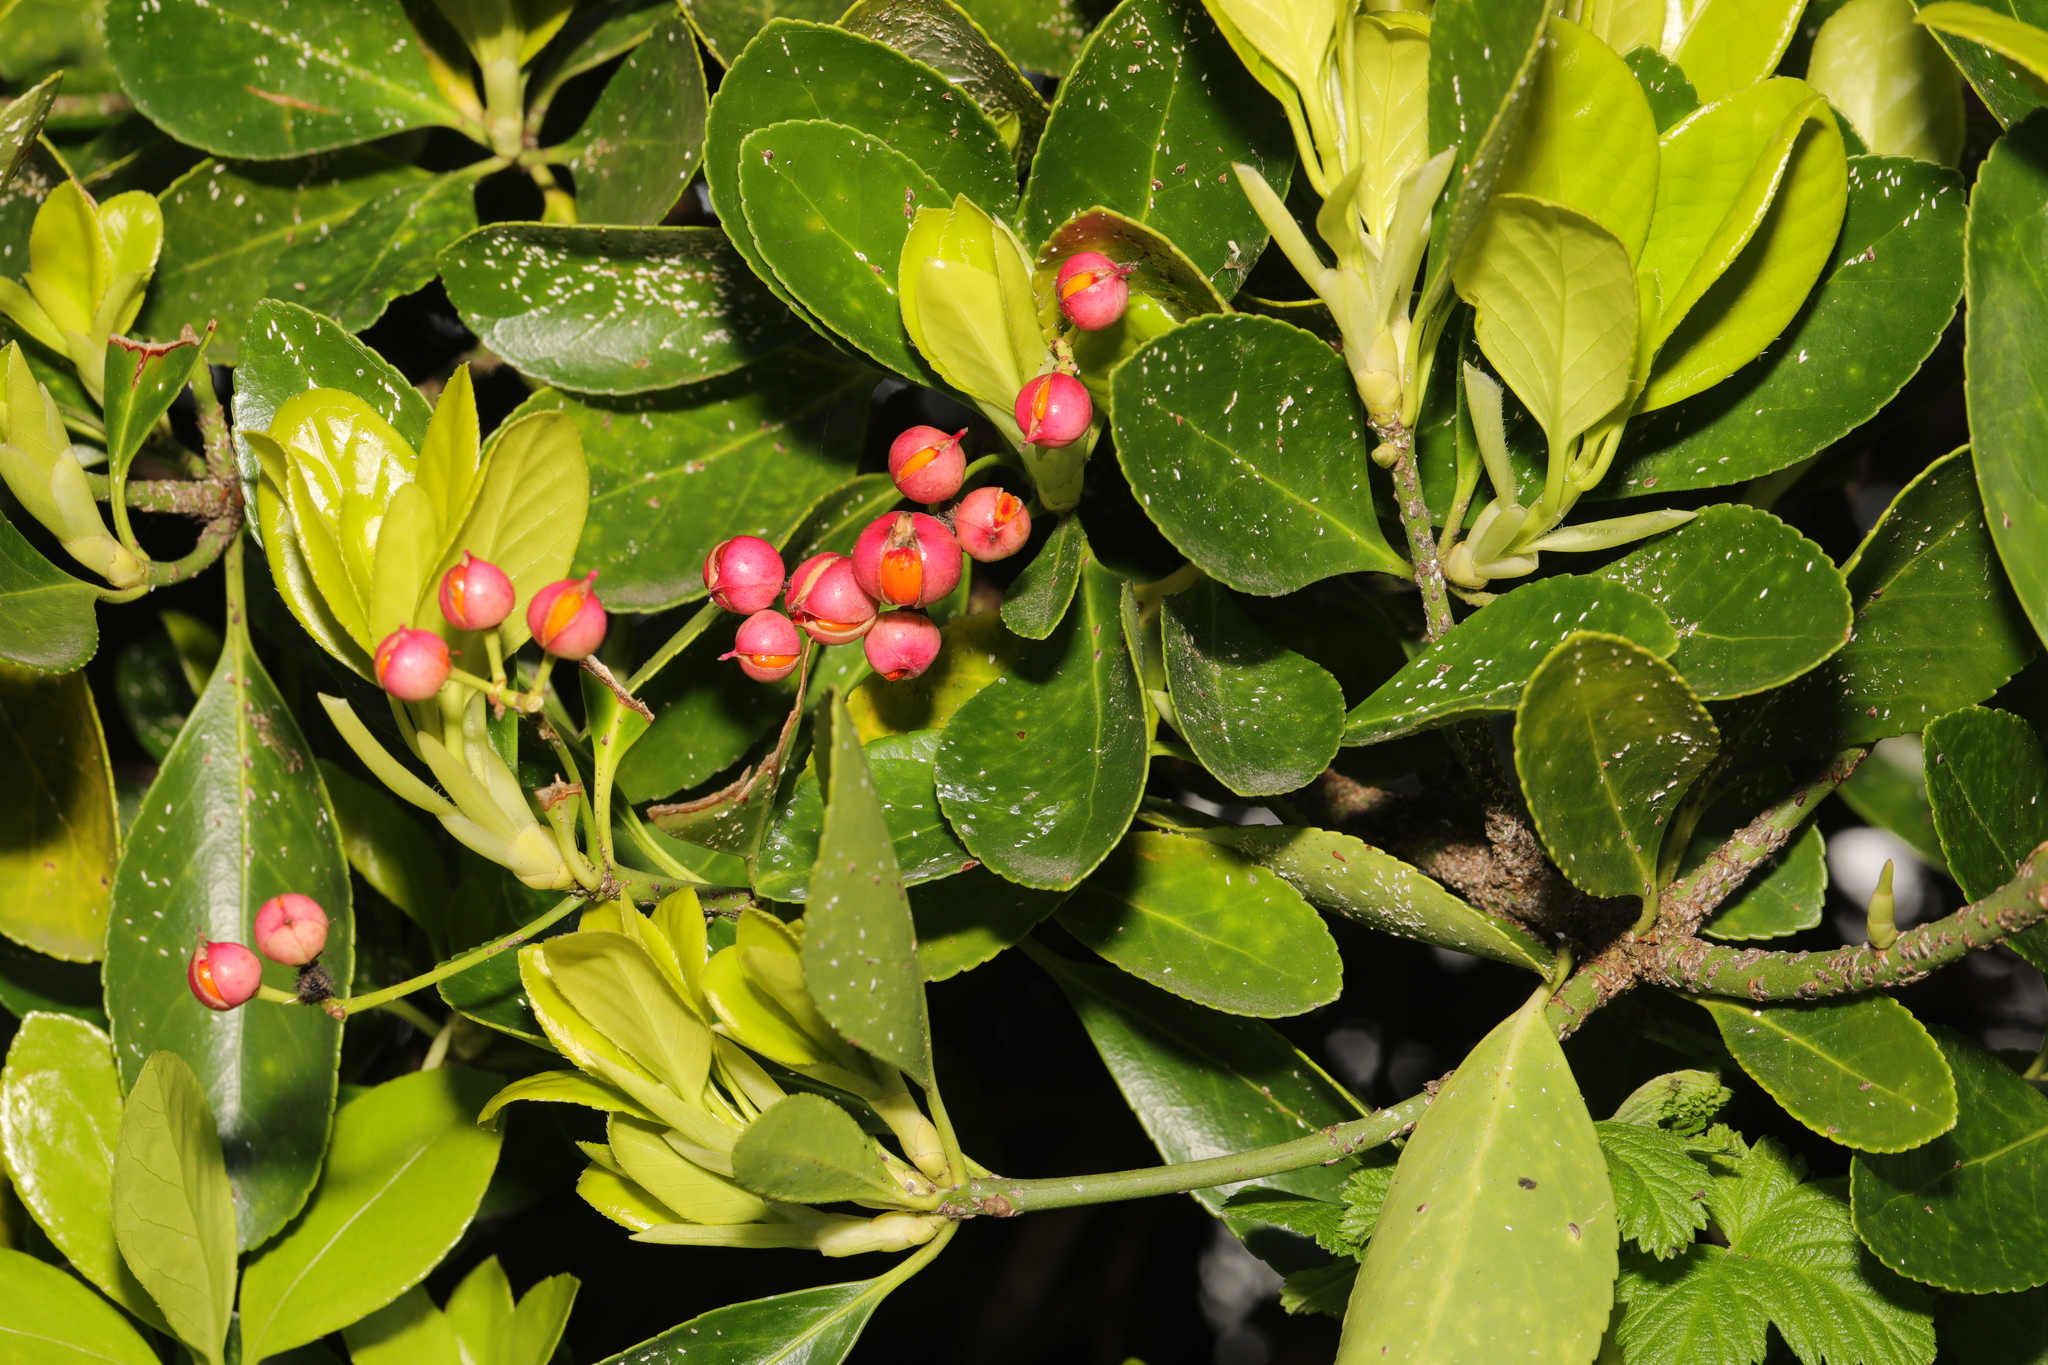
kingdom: Plantae
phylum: Tracheophyta
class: Magnoliopsida
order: Celastrales
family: Celastraceae
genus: Euonymus
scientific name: Euonymus japonicus
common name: Japanese spindletree
